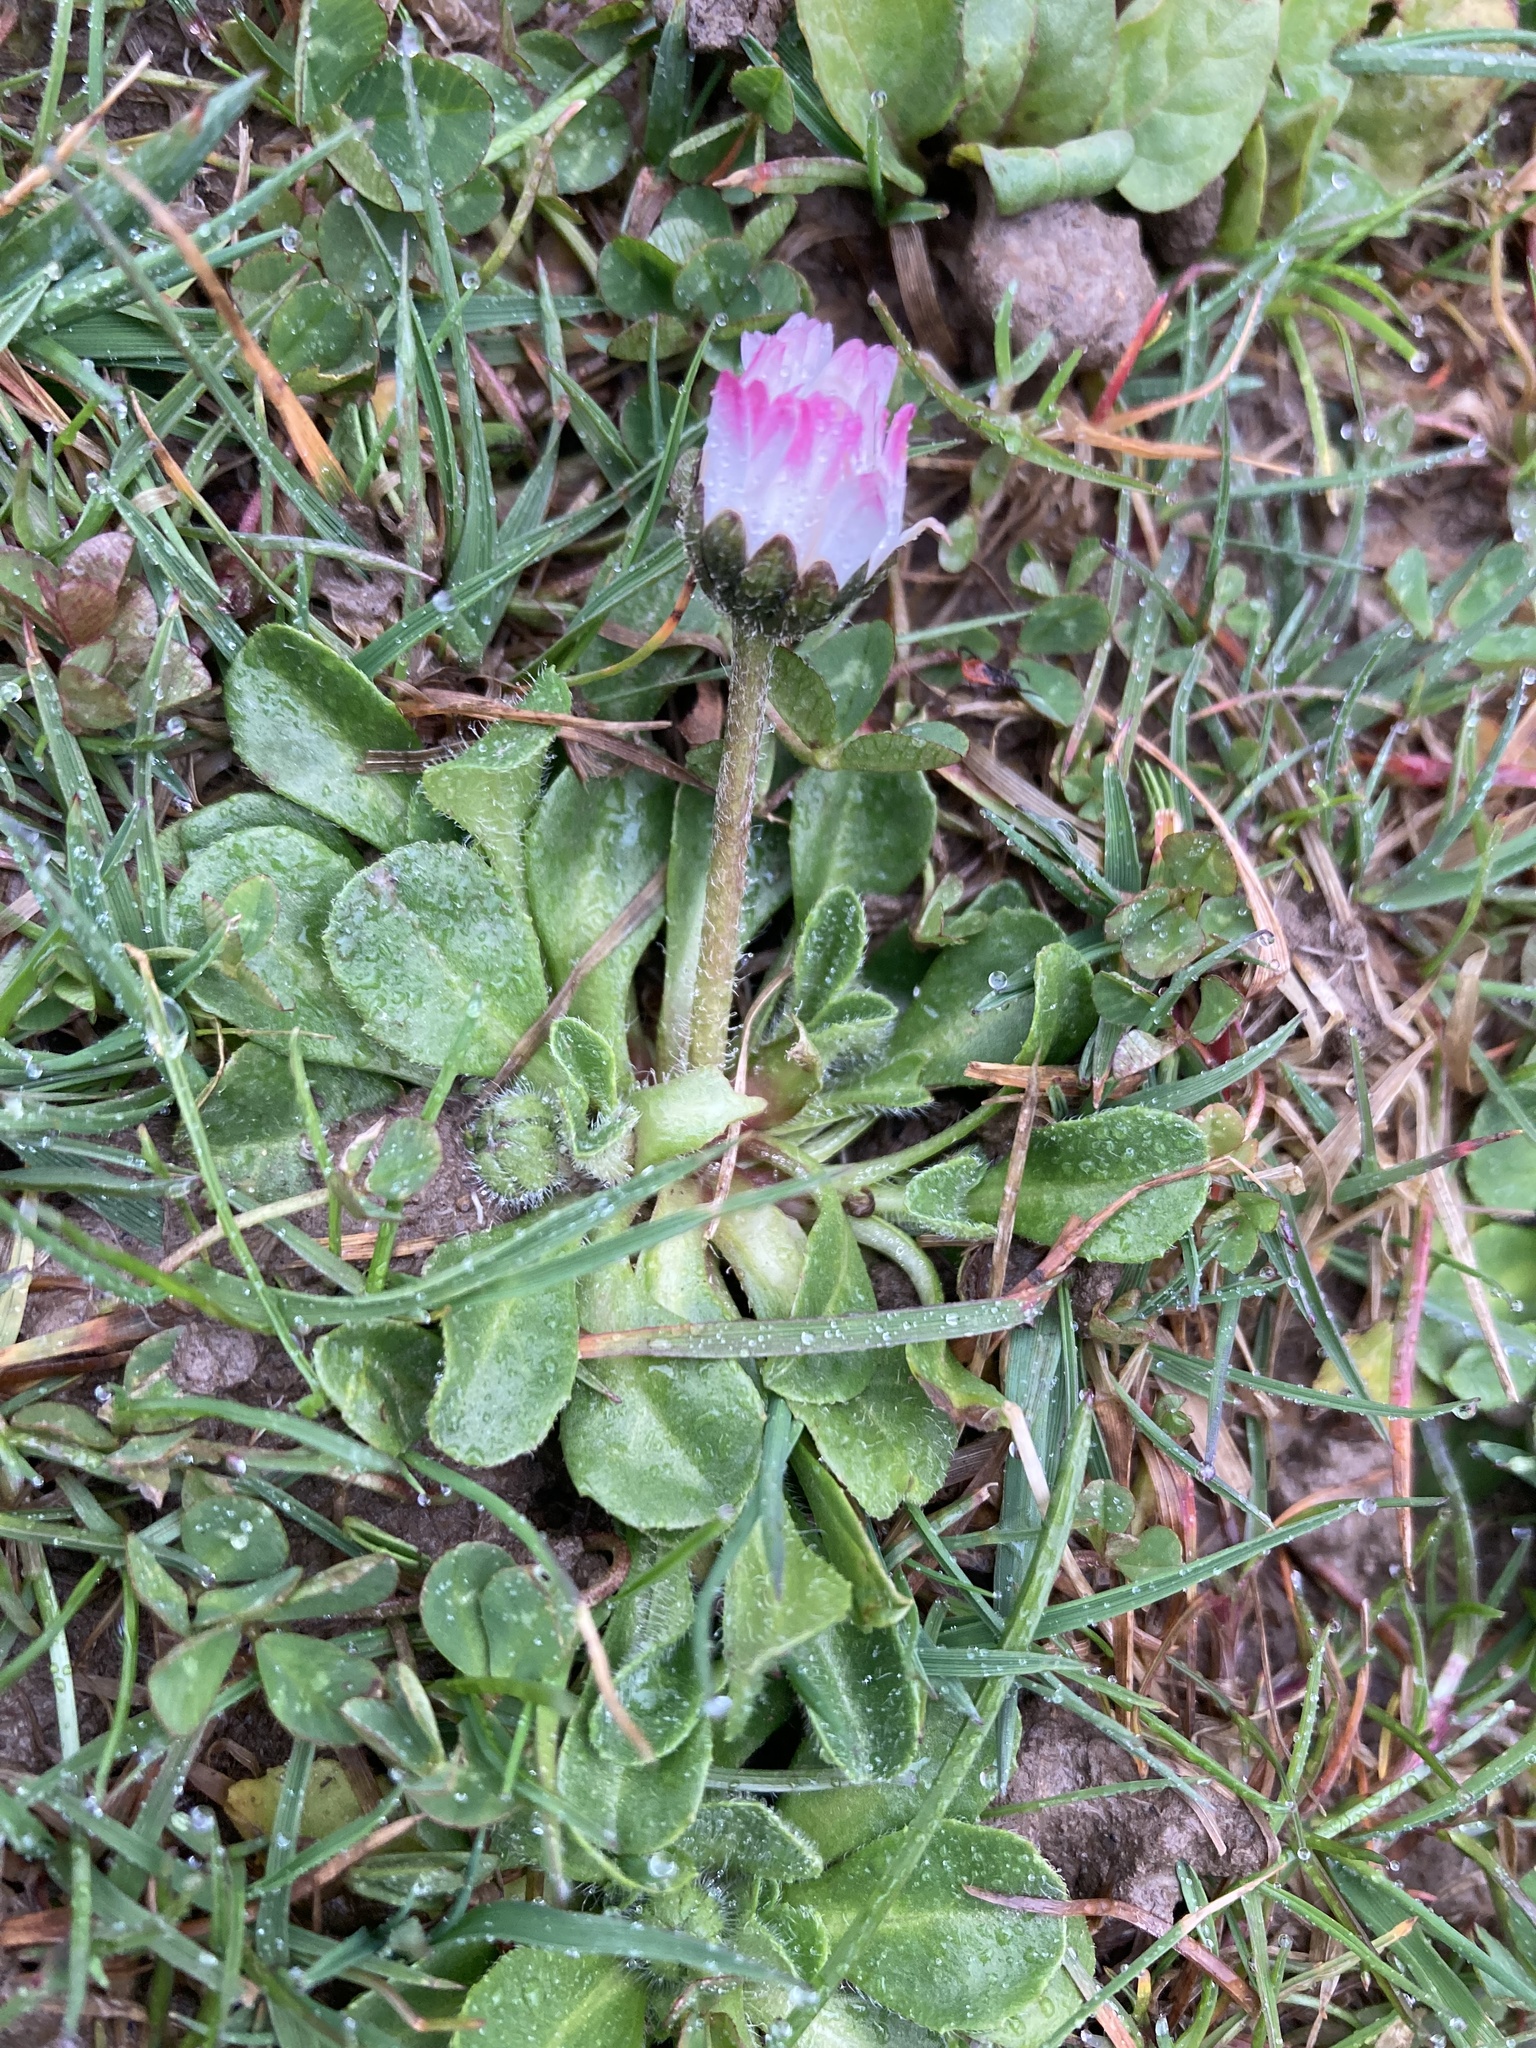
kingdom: Plantae
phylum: Tracheophyta
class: Magnoliopsida
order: Asterales
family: Asteraceae
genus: Bellis
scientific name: Bellis perennis
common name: Lawndaisy
